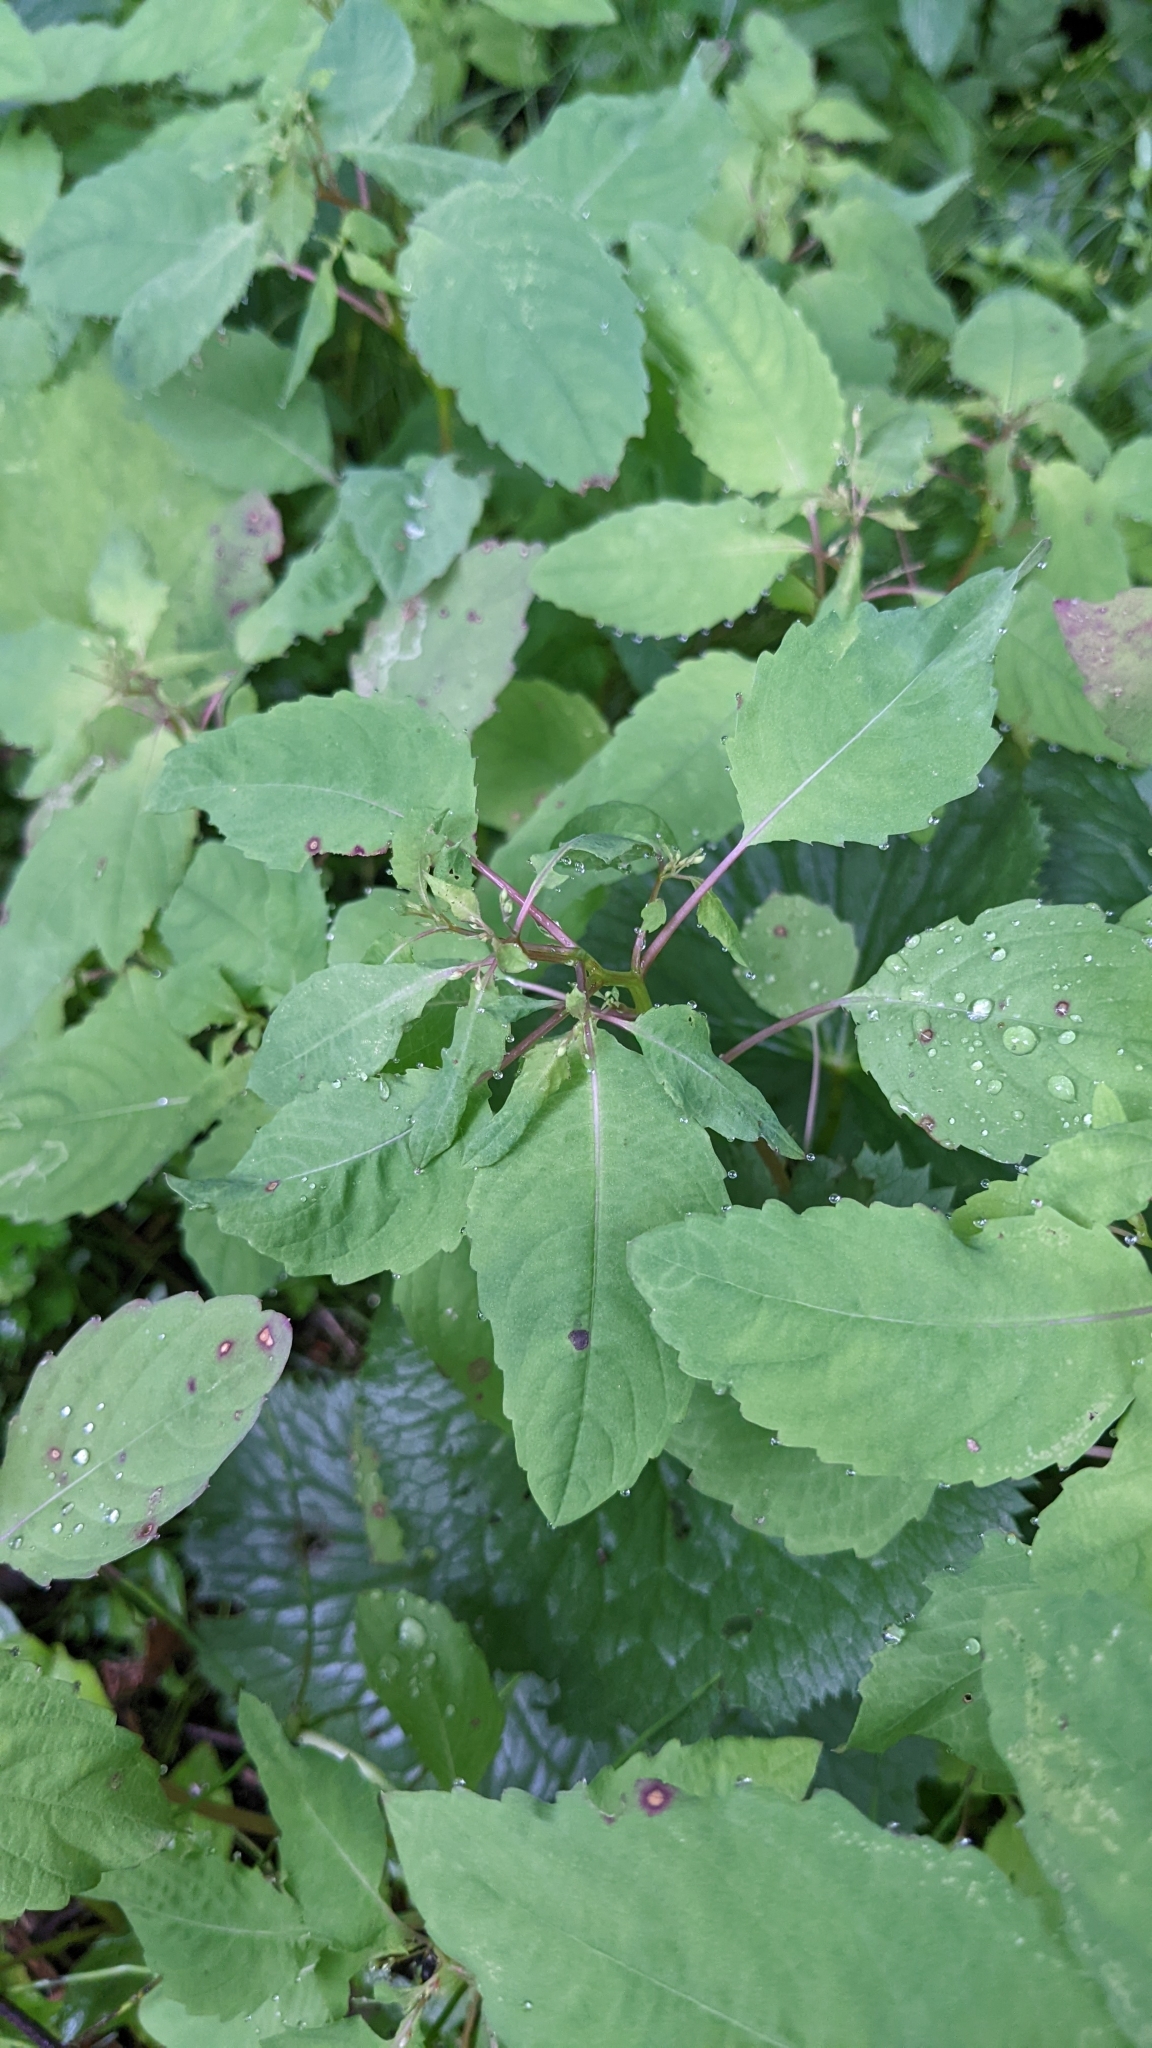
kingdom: Plantae
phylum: Tracheophyta
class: Magnoliopsida
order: Ericales
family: Balsaminaceae
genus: Impatiens
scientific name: Impatiens noli-tangere
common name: Touch-me-not balsam
